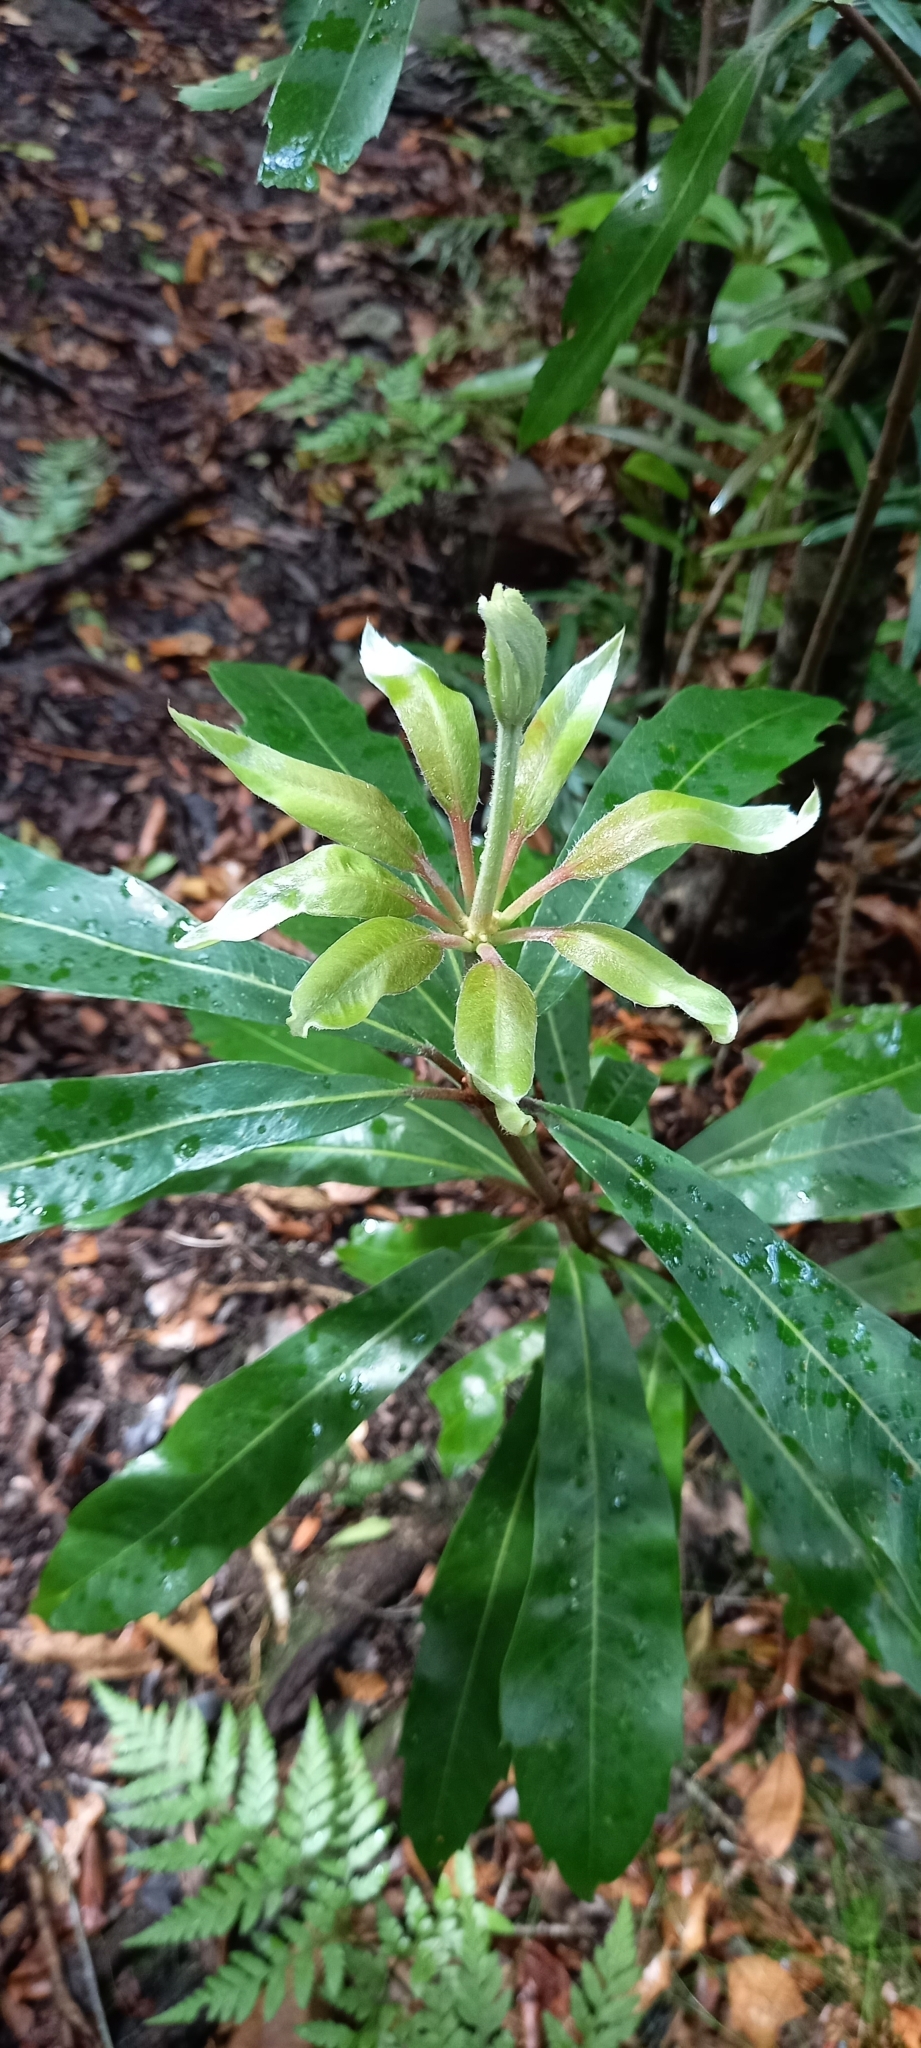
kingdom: Plantae
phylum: Tracheophyta
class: Magnoliopsida
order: Proteales
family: Proteaceae
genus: Brabejum
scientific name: Brabejum stellatifolium
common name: Wild almond
